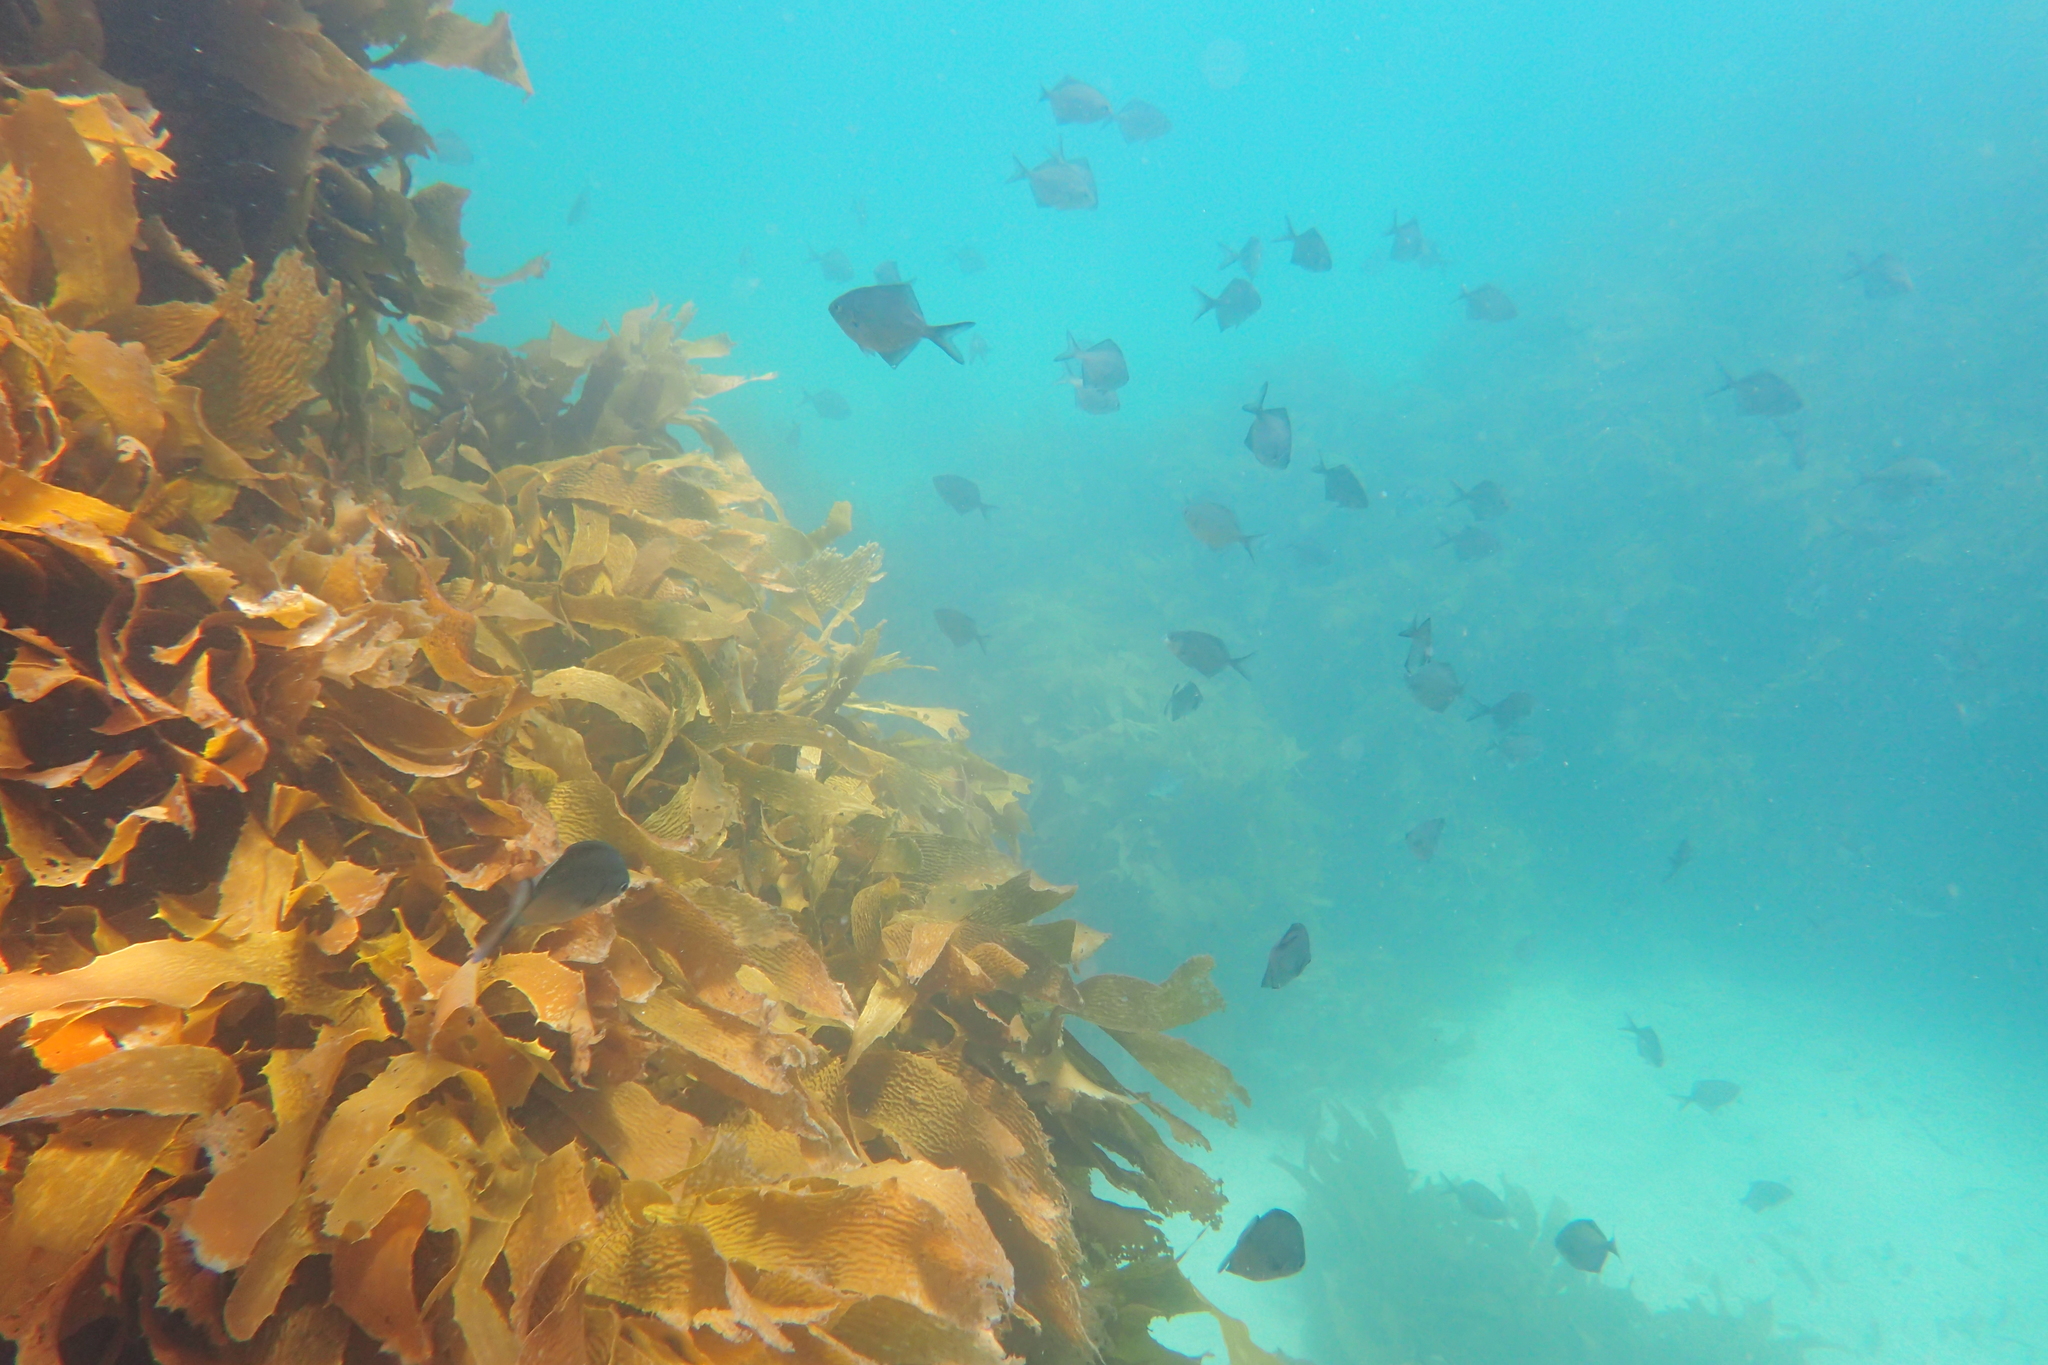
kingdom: Animalia
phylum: Chordata
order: Perciformes
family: Kyphosidae
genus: Scorpis
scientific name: Scorpis lineolata
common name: Sweep
